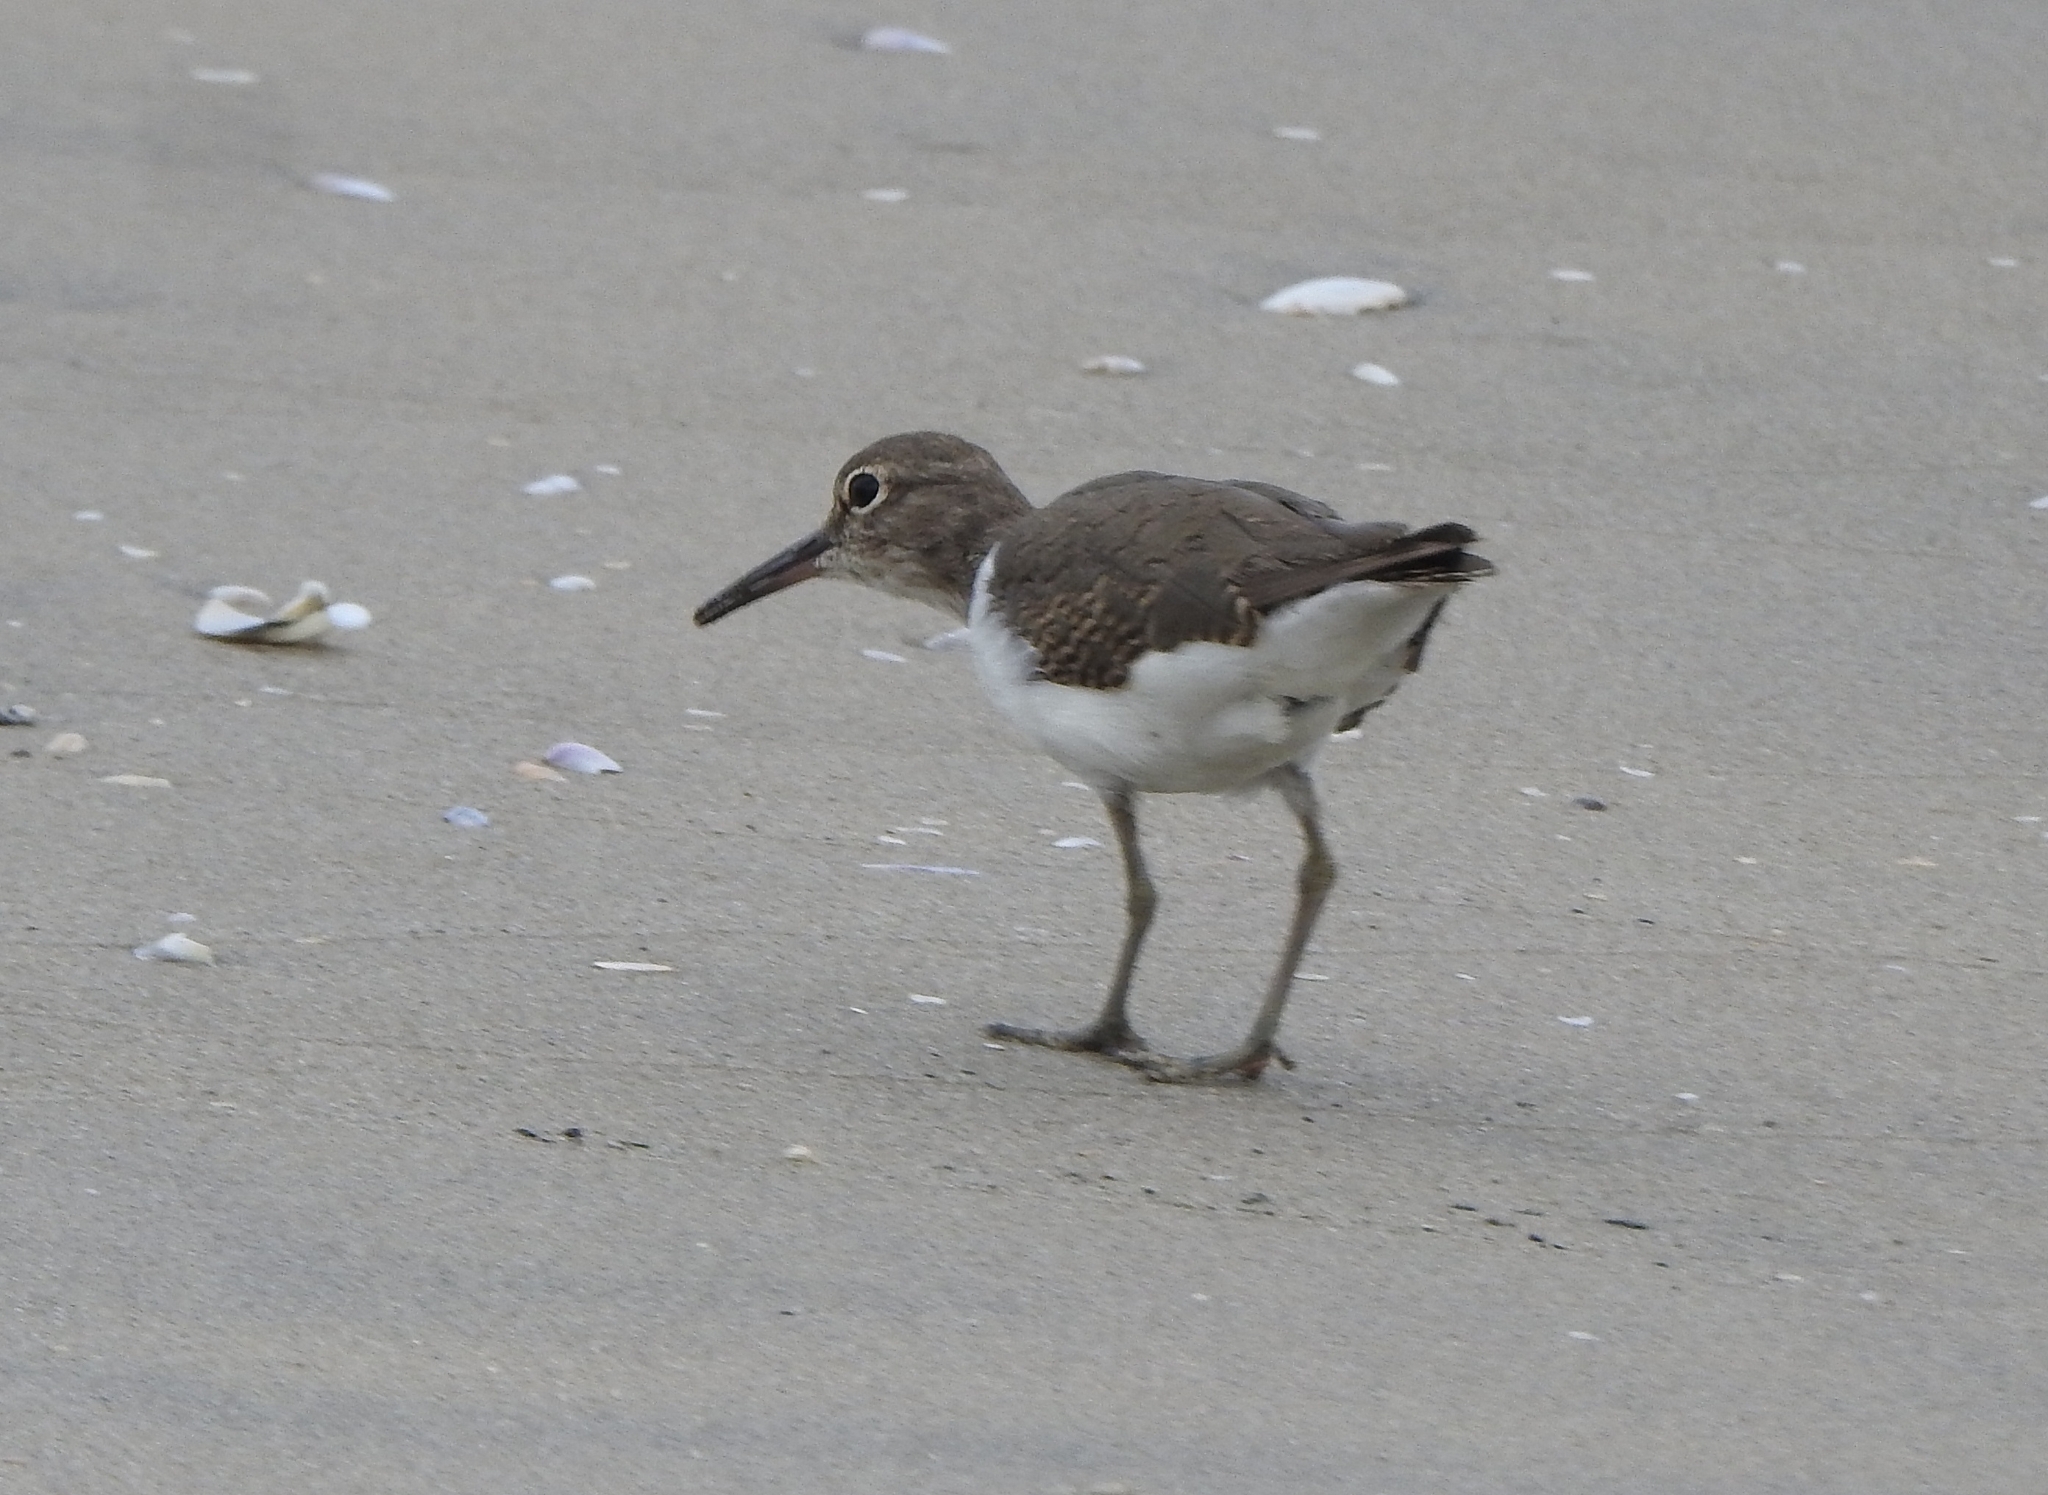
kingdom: Animalia
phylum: Chordata
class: Aves
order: Charadriiformes
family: Scolopacidae
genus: Actitis
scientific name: Actitis hypoleucos
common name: Common sandpiper
